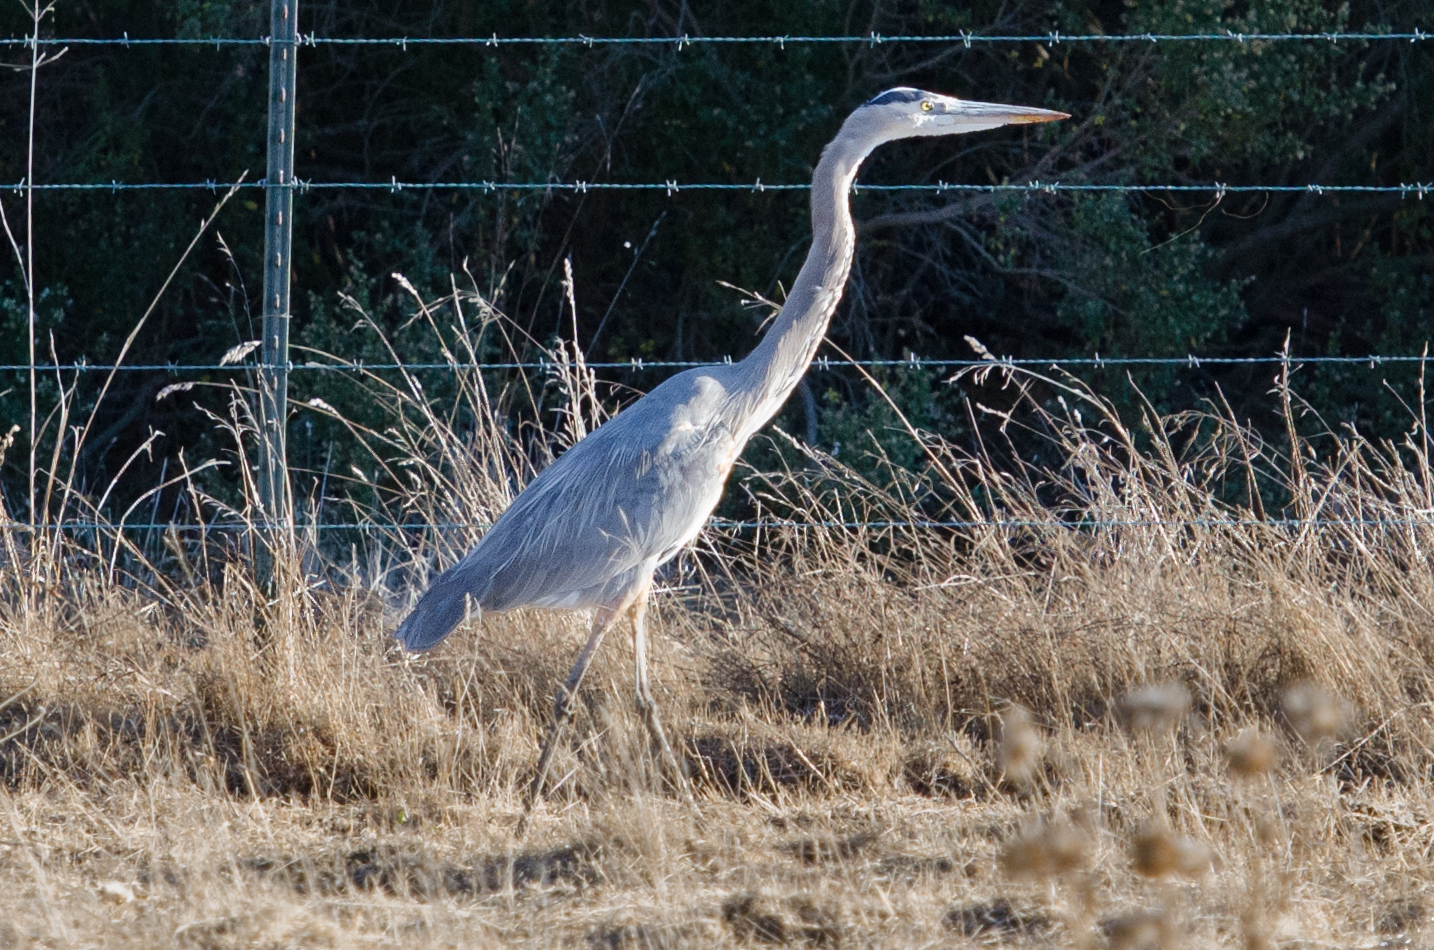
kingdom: Animalia
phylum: Chordata
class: Aves
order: Pelecaniformes
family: Ardeidae
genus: Ardea
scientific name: Ardea herodias
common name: Great blue heron
